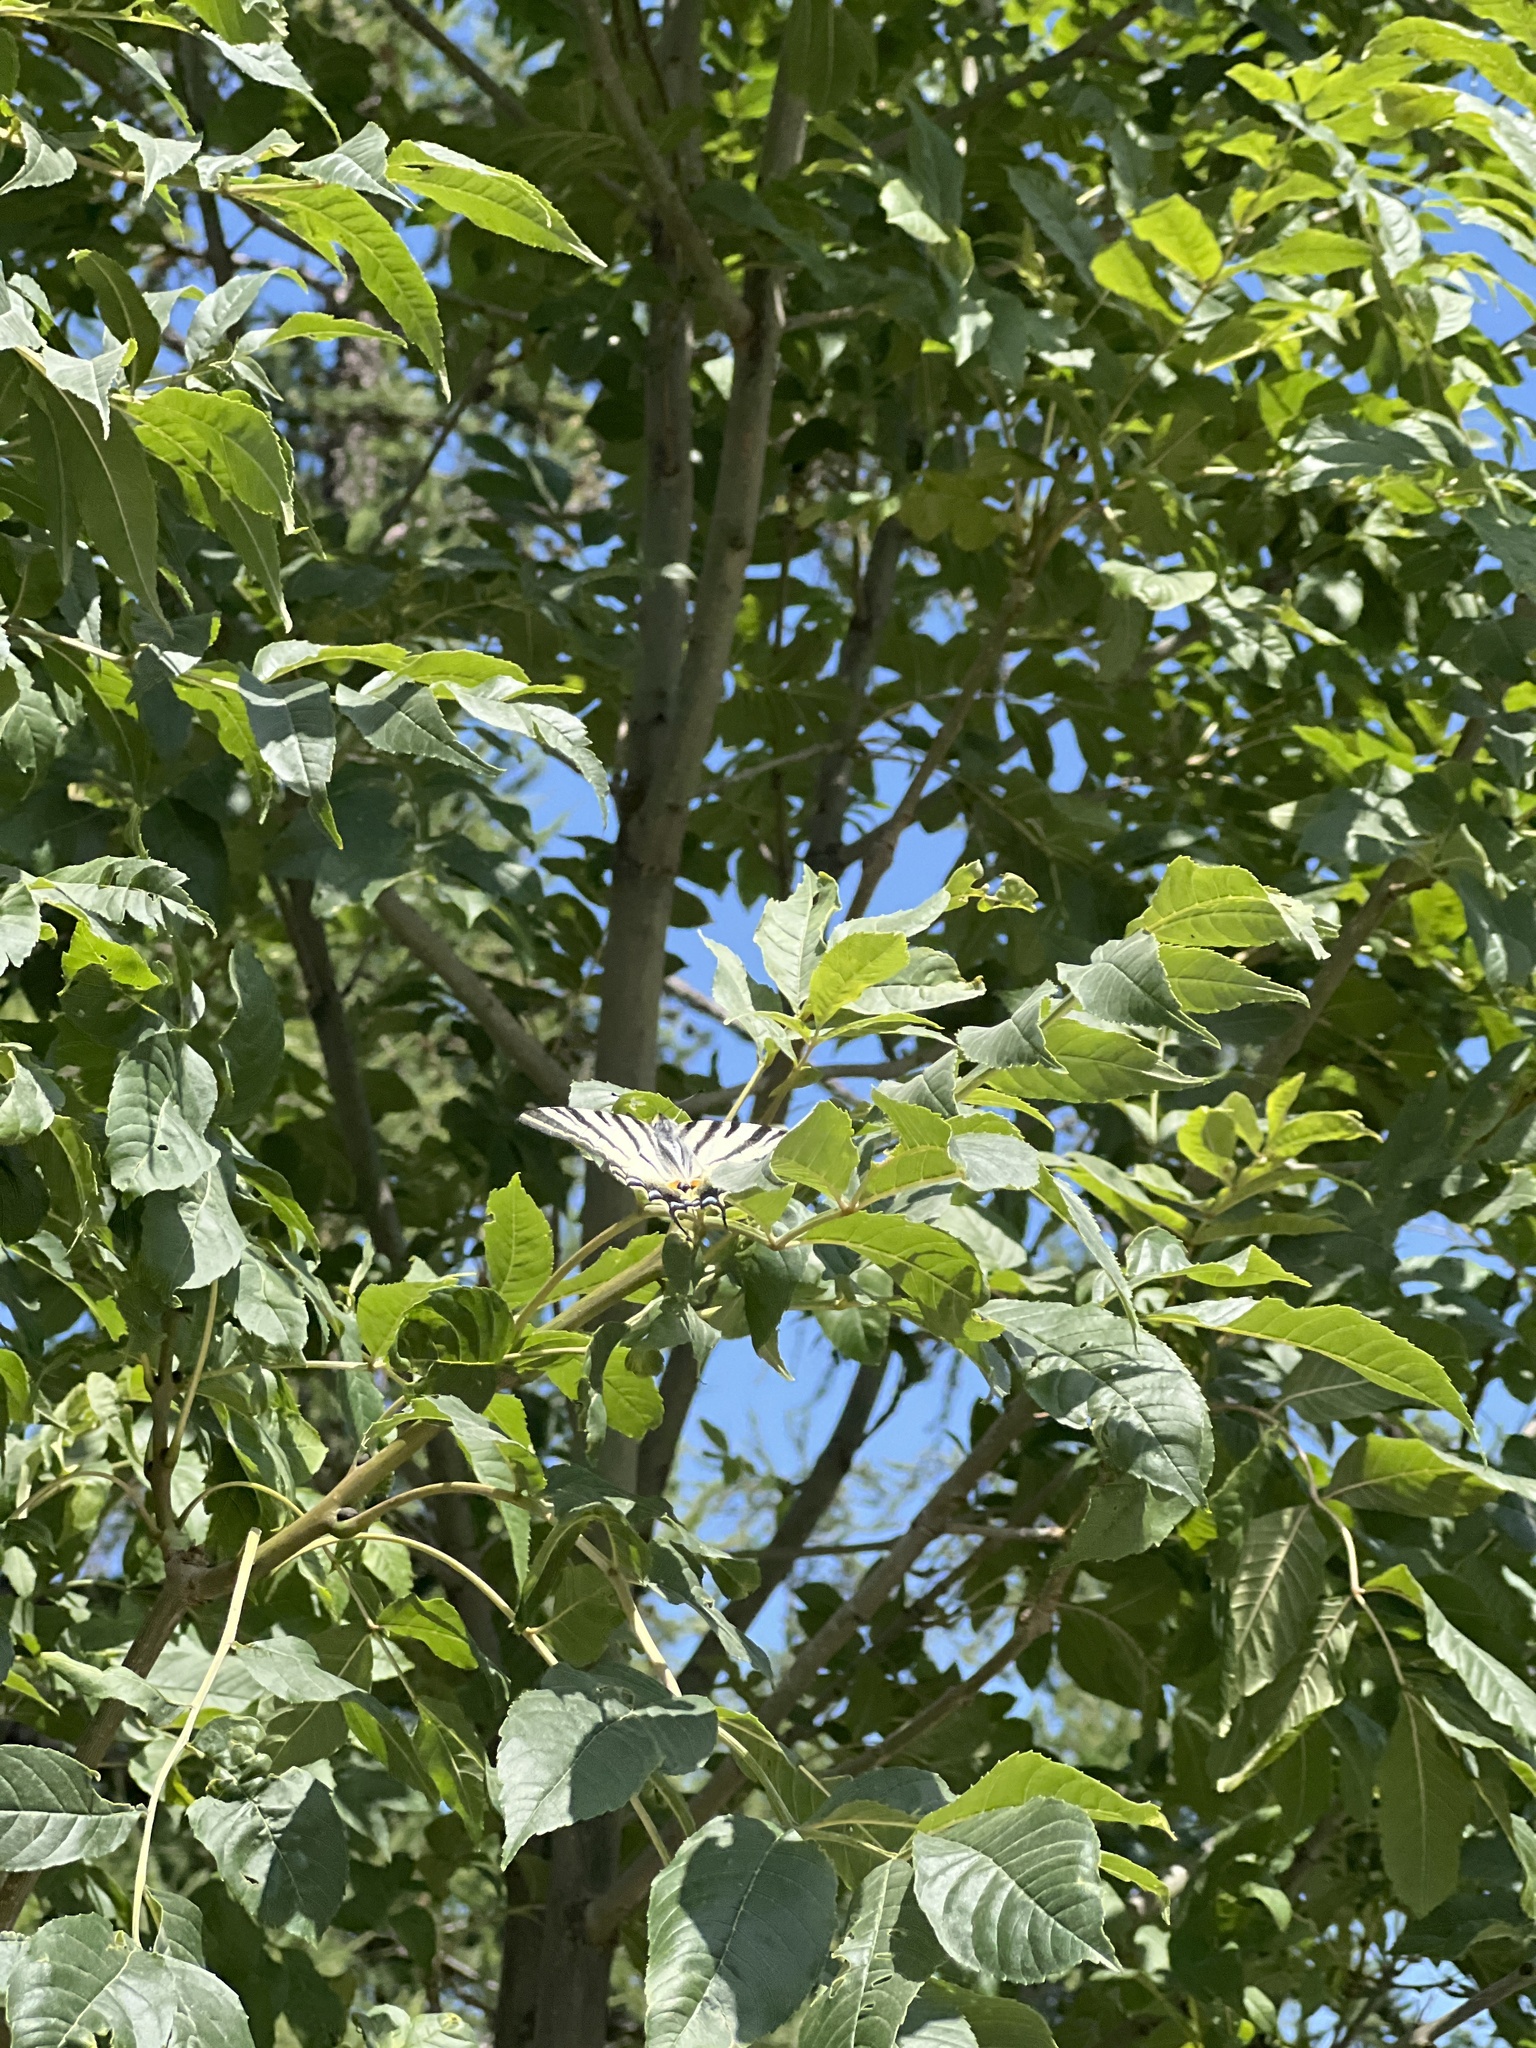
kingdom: Animalia
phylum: Arthropoda
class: Insecta
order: Lepidoptera
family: Papilionidae
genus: Iphiclides
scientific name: Iphiclides podalirius
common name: Scarce swallowtail
